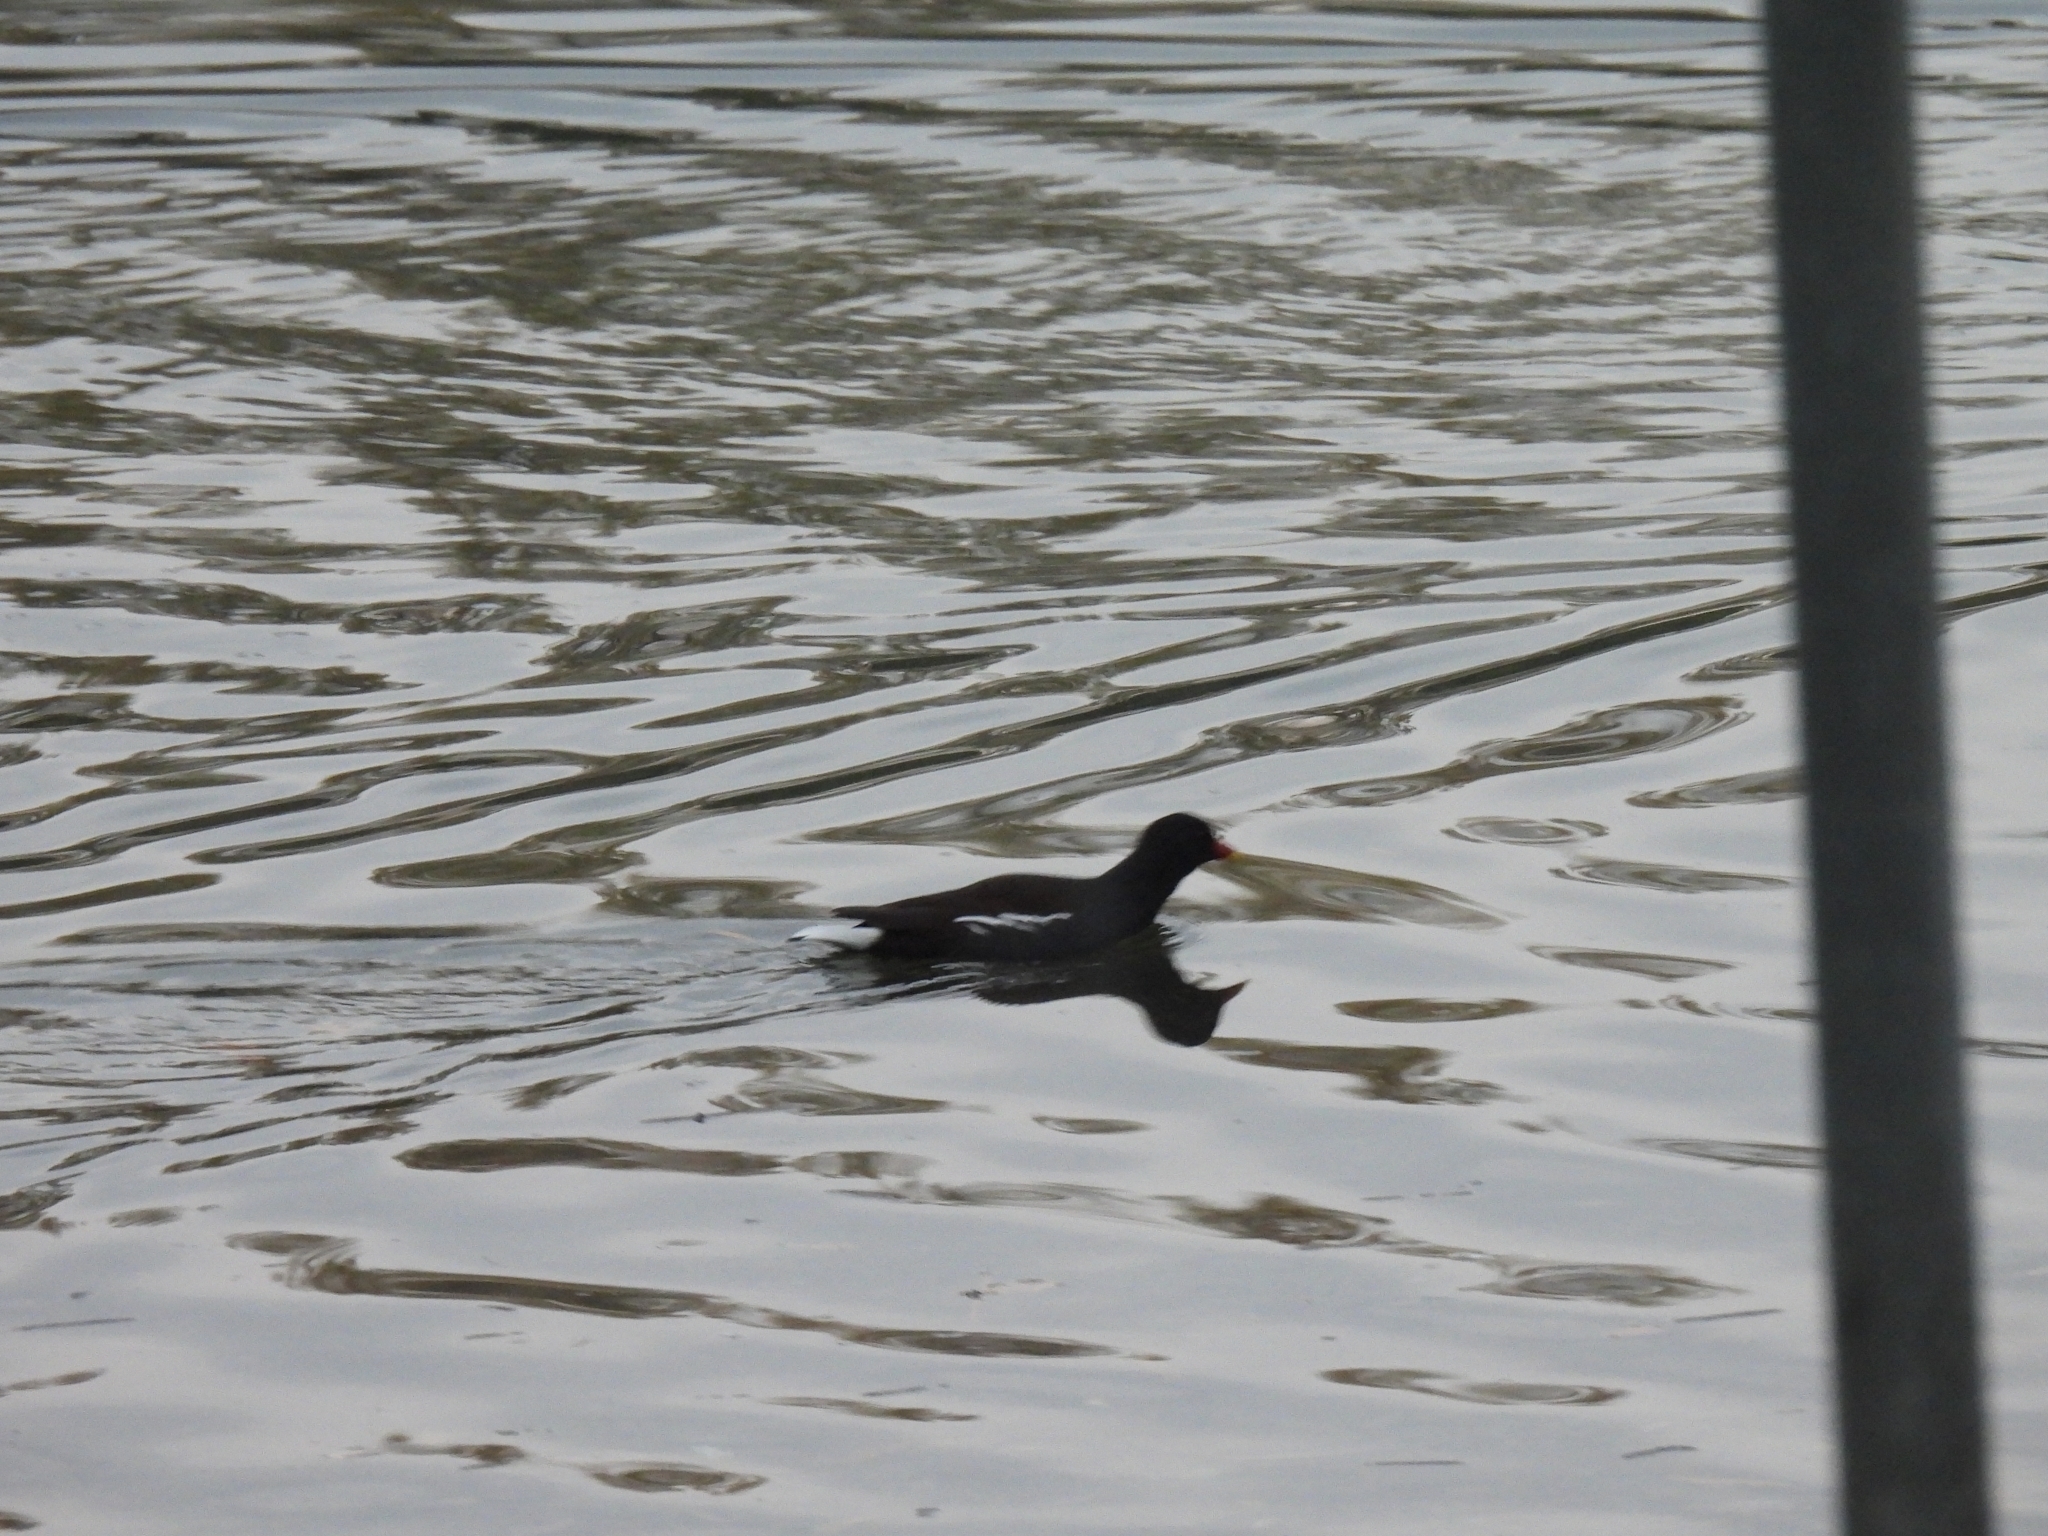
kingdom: Animalia
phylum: Chordata
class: Aves
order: Gruiformes
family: Rallidae
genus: Gallinula
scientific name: Gallinula chloropus
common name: Common moorhen
